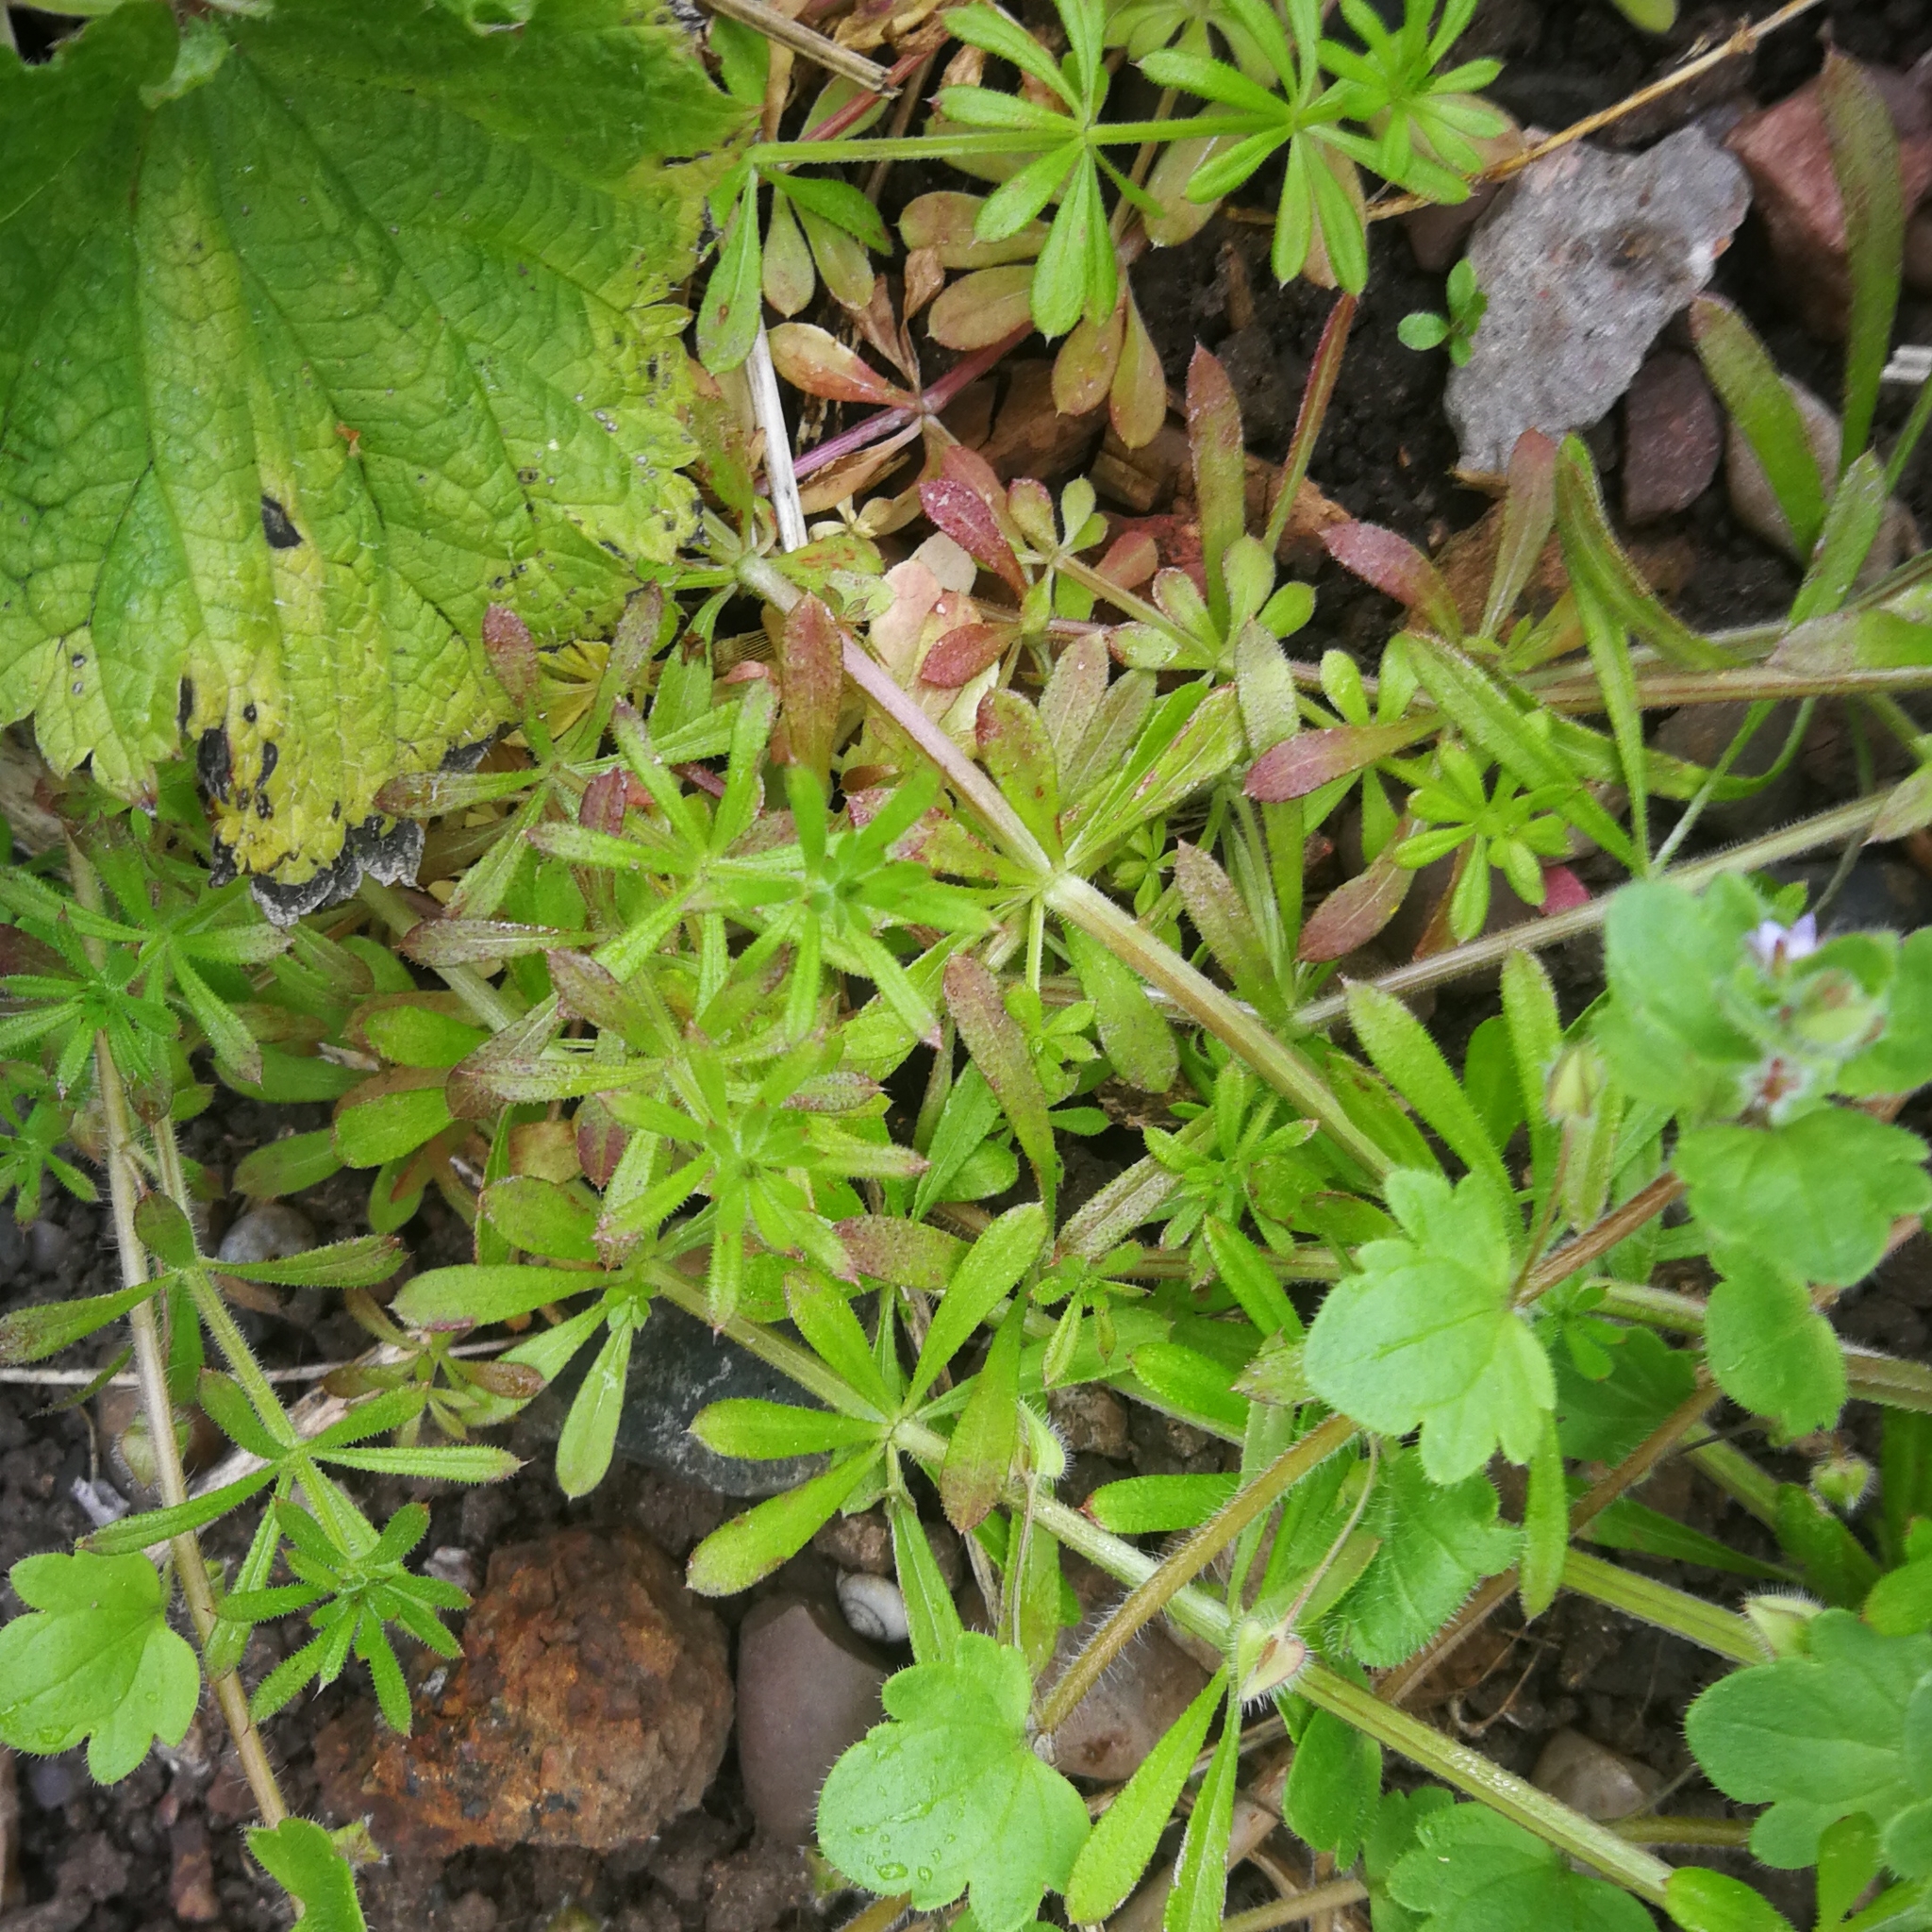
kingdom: Plantae
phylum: Tracheophyta
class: Magnoliopsida
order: Gentianales
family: Rubiaceae
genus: Galium
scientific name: Galium aparine
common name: Cleavers
